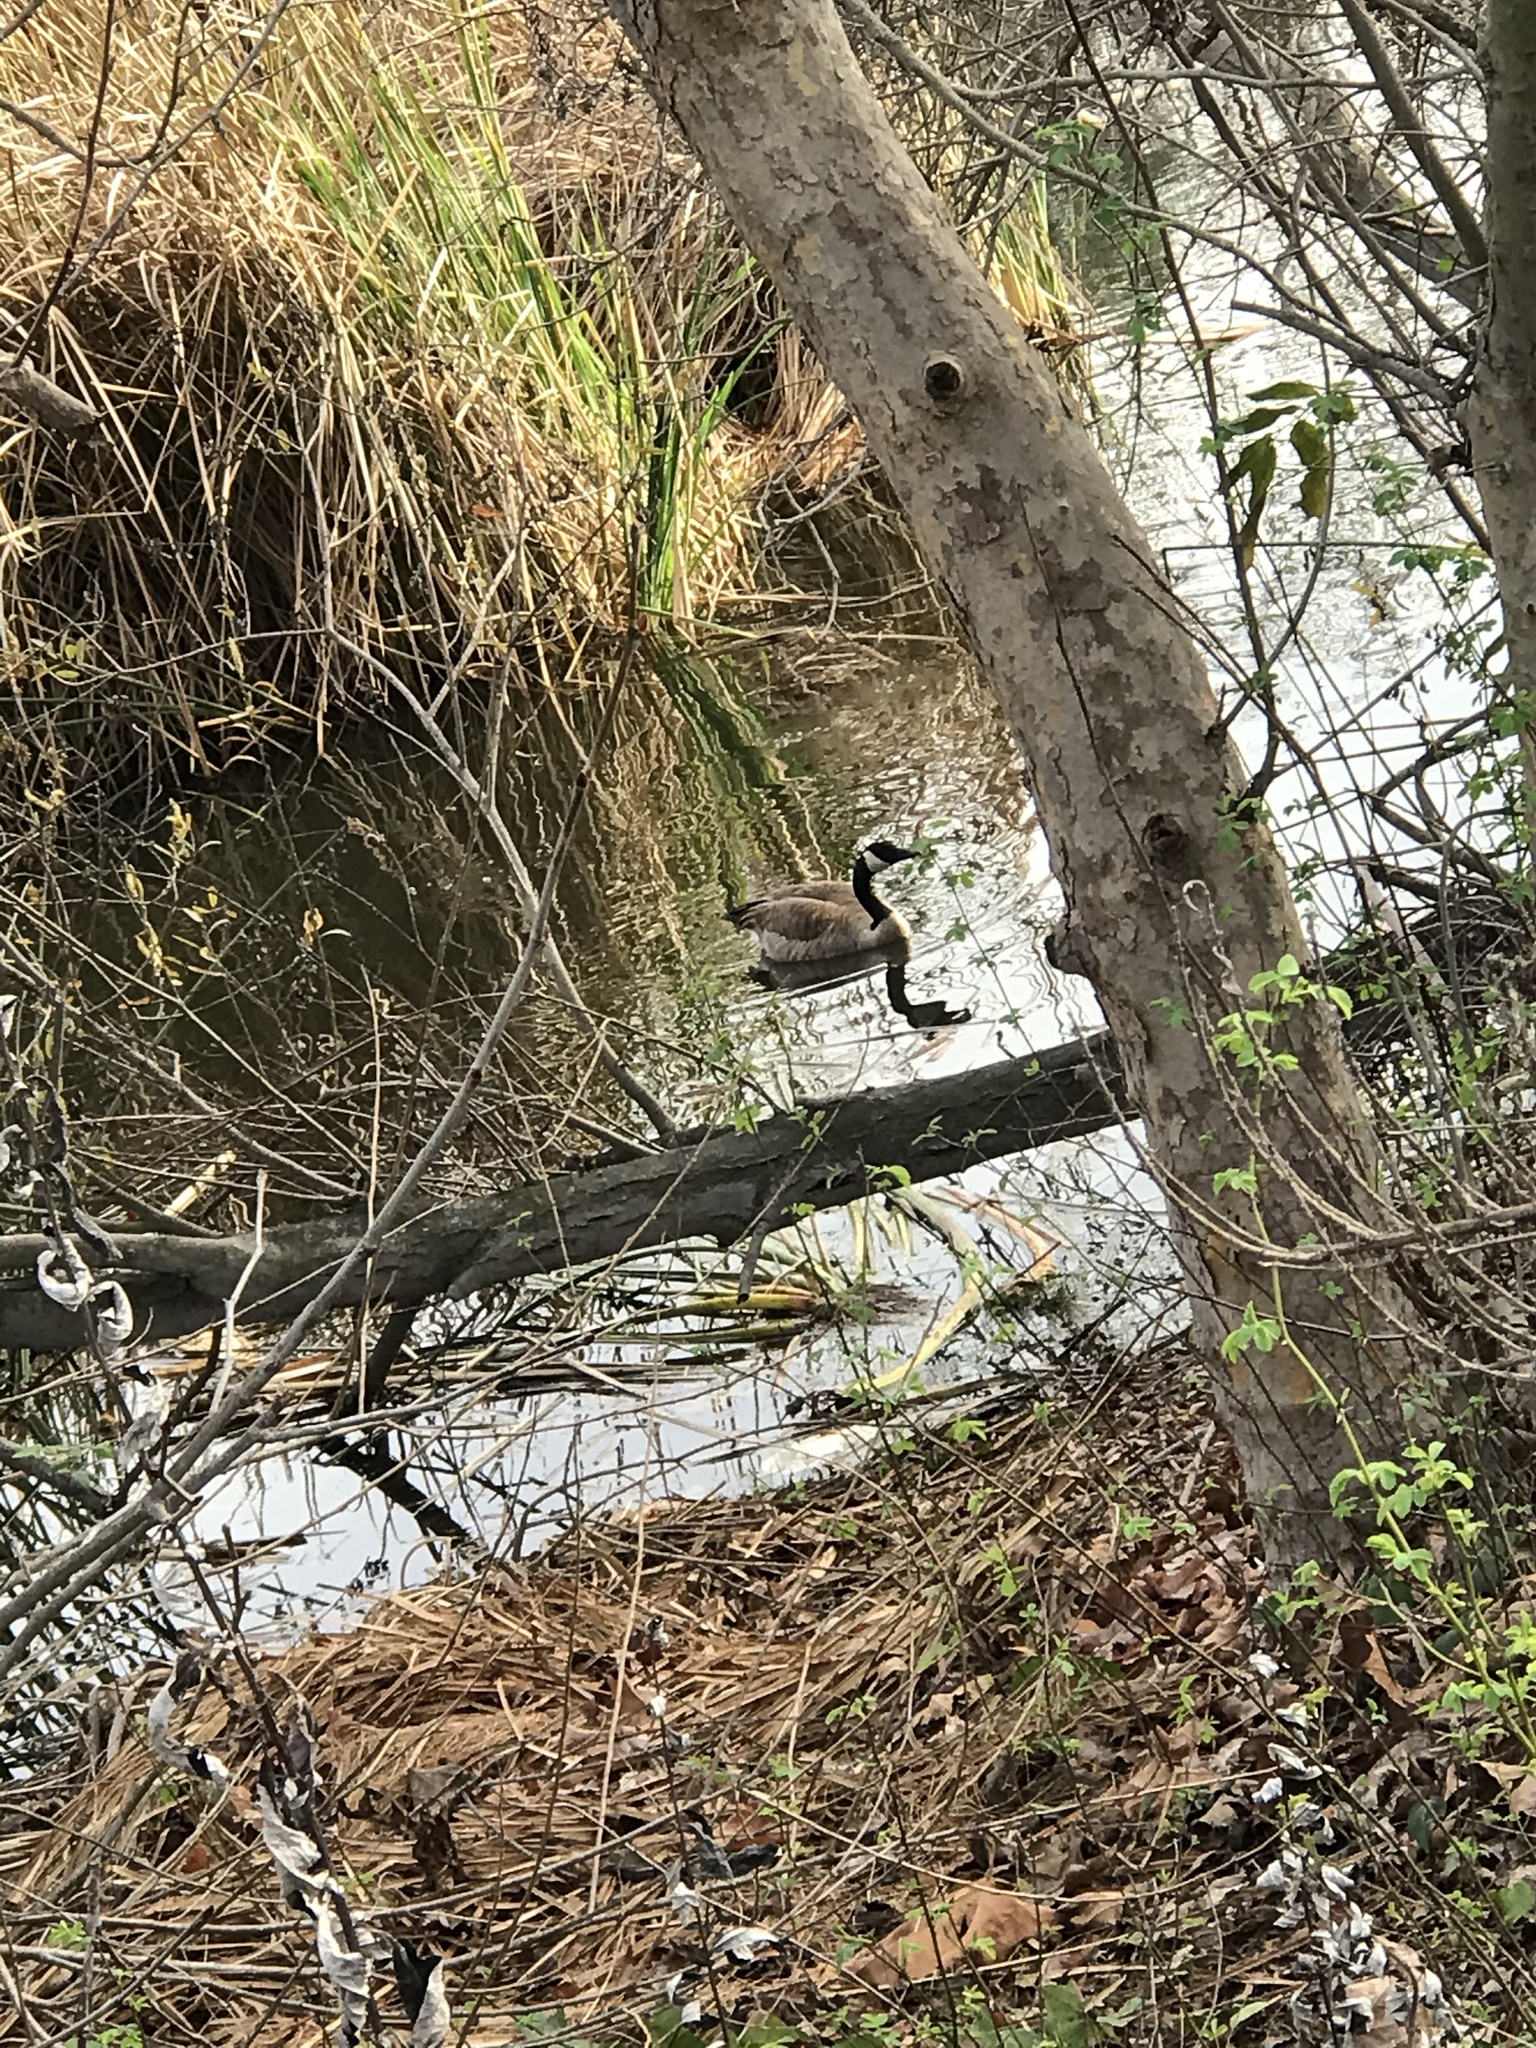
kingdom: Animalia
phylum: Chordata
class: Aves
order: Anseriformes
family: Anatidae
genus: Branta
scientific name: Branta canadensis
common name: Canada goose
